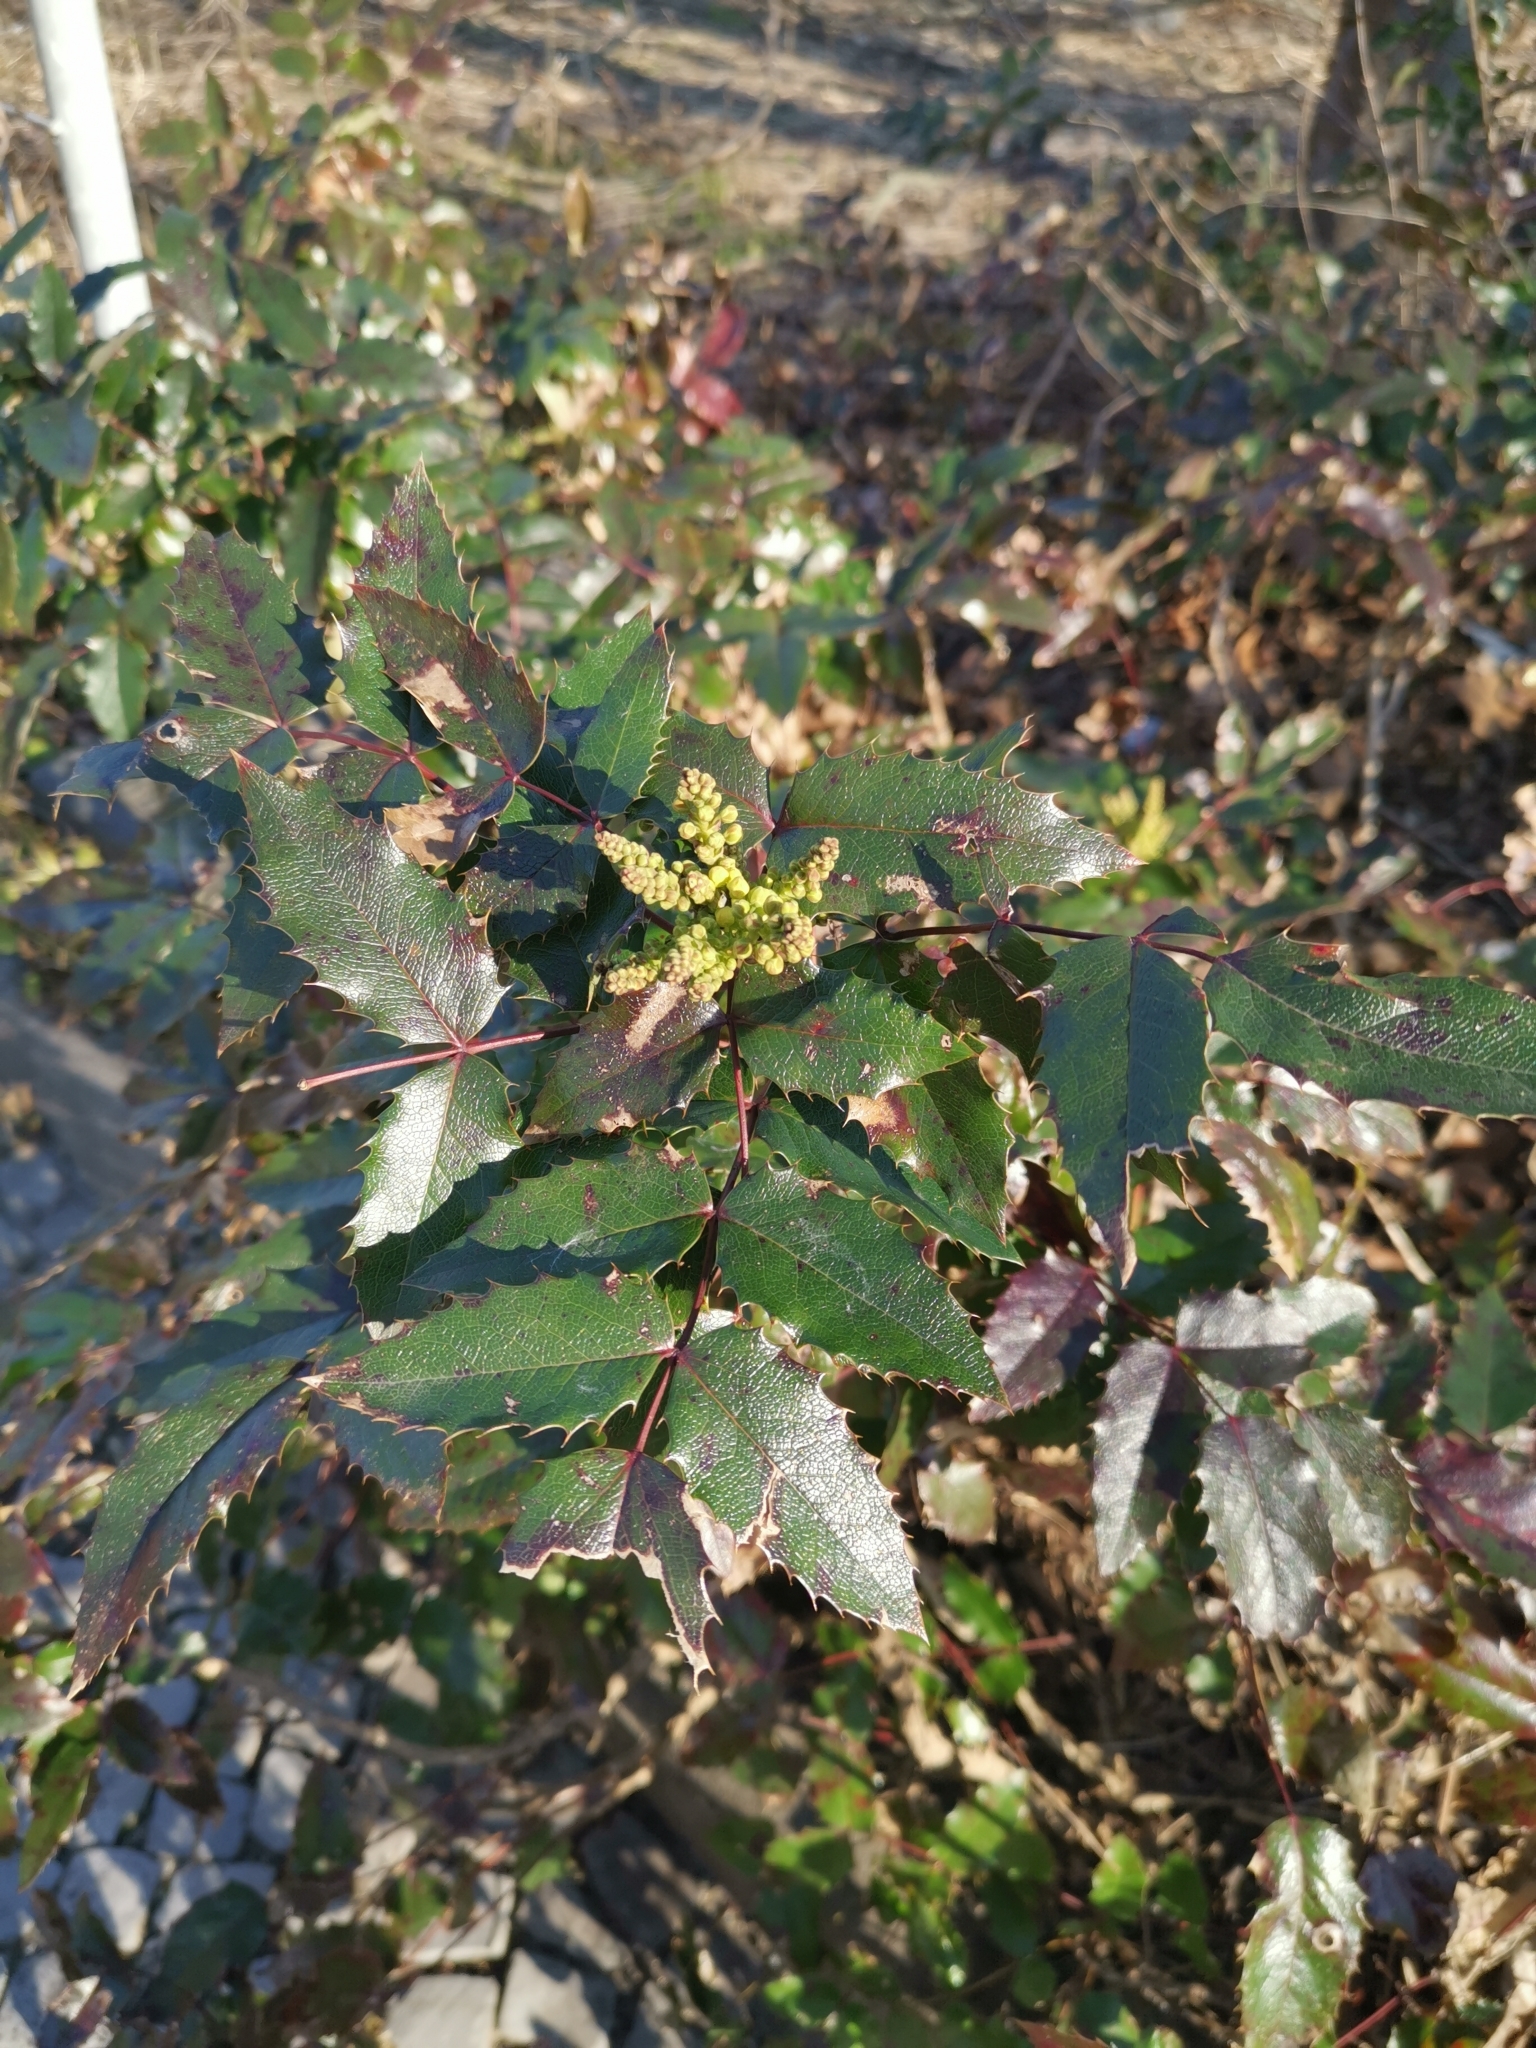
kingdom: Plantae
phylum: Tracheophyta
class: Magnoliopsida
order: Ranunculales
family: Berberidaceae
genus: Mahonia
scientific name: Mahonia aquifolium
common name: Oregon-grape
